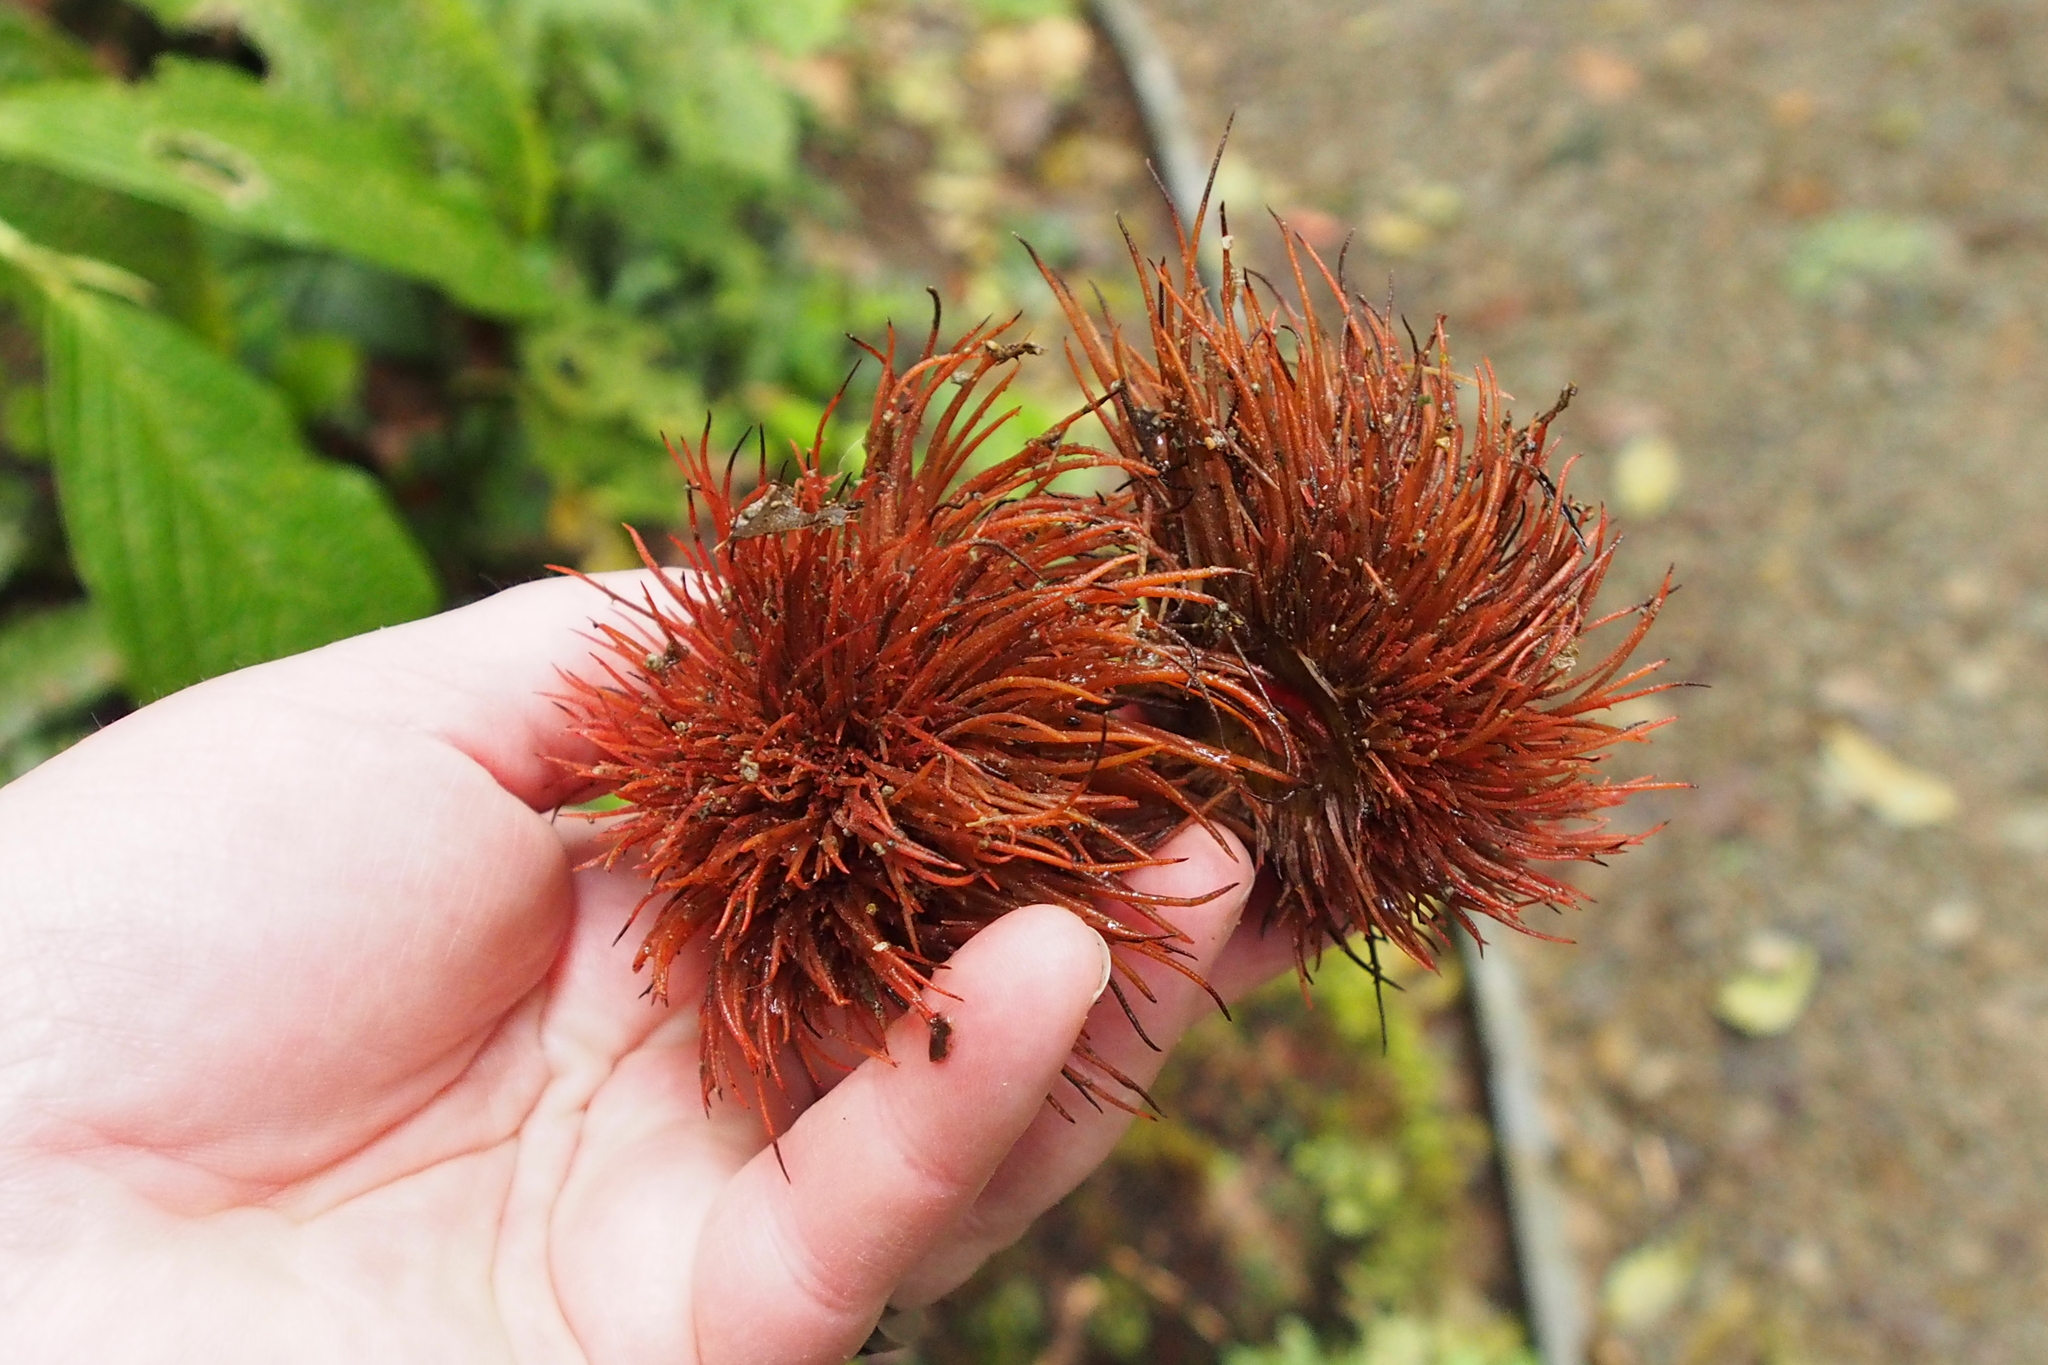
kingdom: Plantae
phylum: Tracheophyta
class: Magnoliopsida
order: Oxalidales
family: Elaeocarpaceae
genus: Sloanea
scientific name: Sloanea ampla
